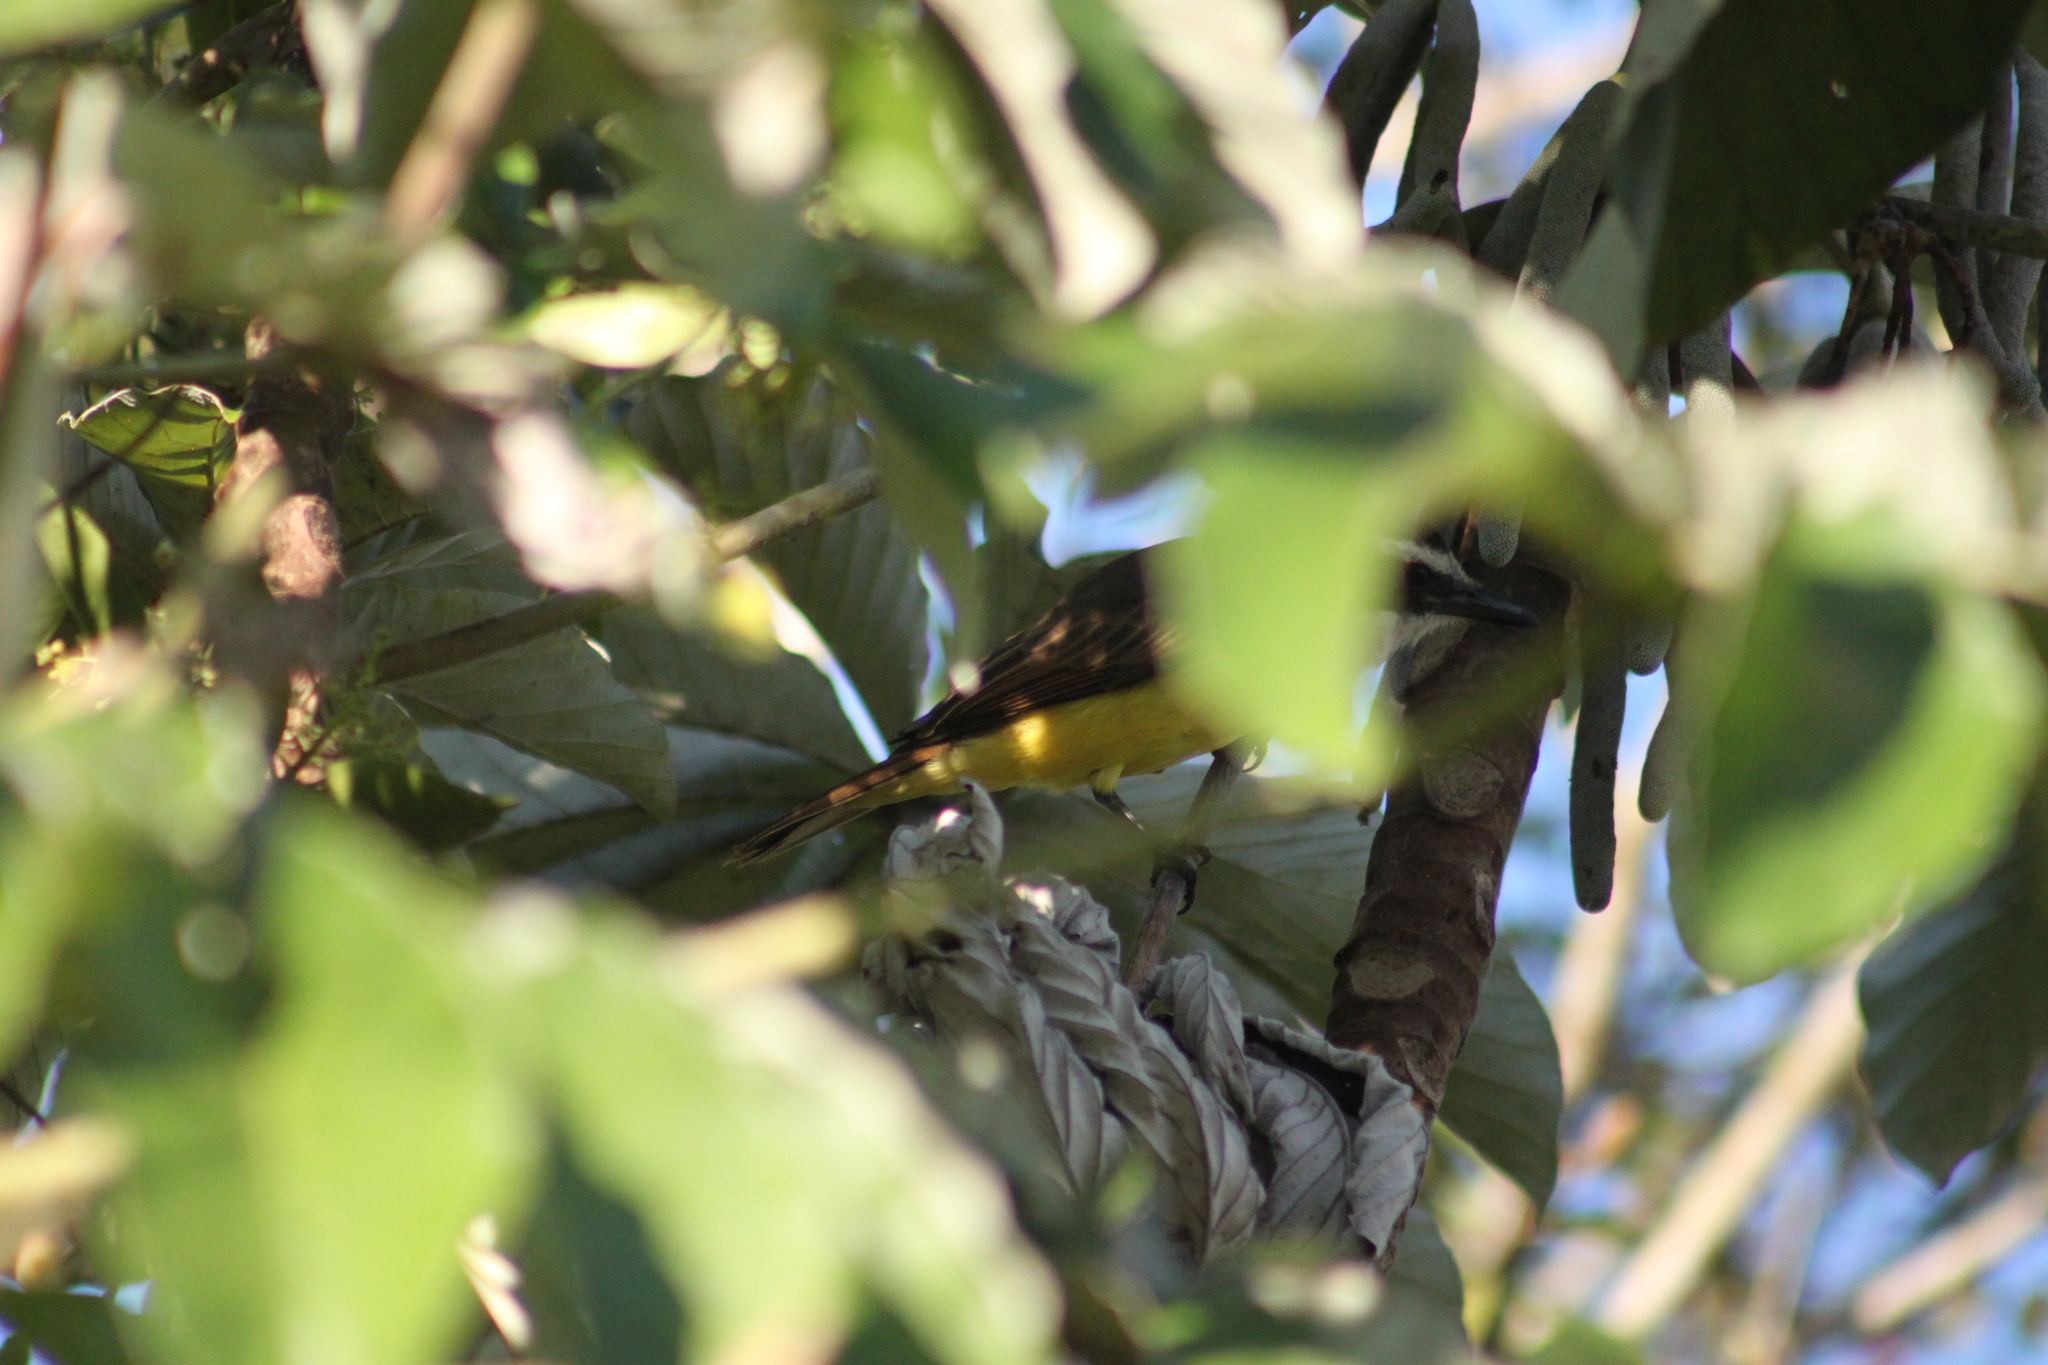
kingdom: Animalia
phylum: Chordata
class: Aves
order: Passeriformes
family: Tyrannidae
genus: Pitangus
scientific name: Pitangus sulphuratus
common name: Great kiskadee
